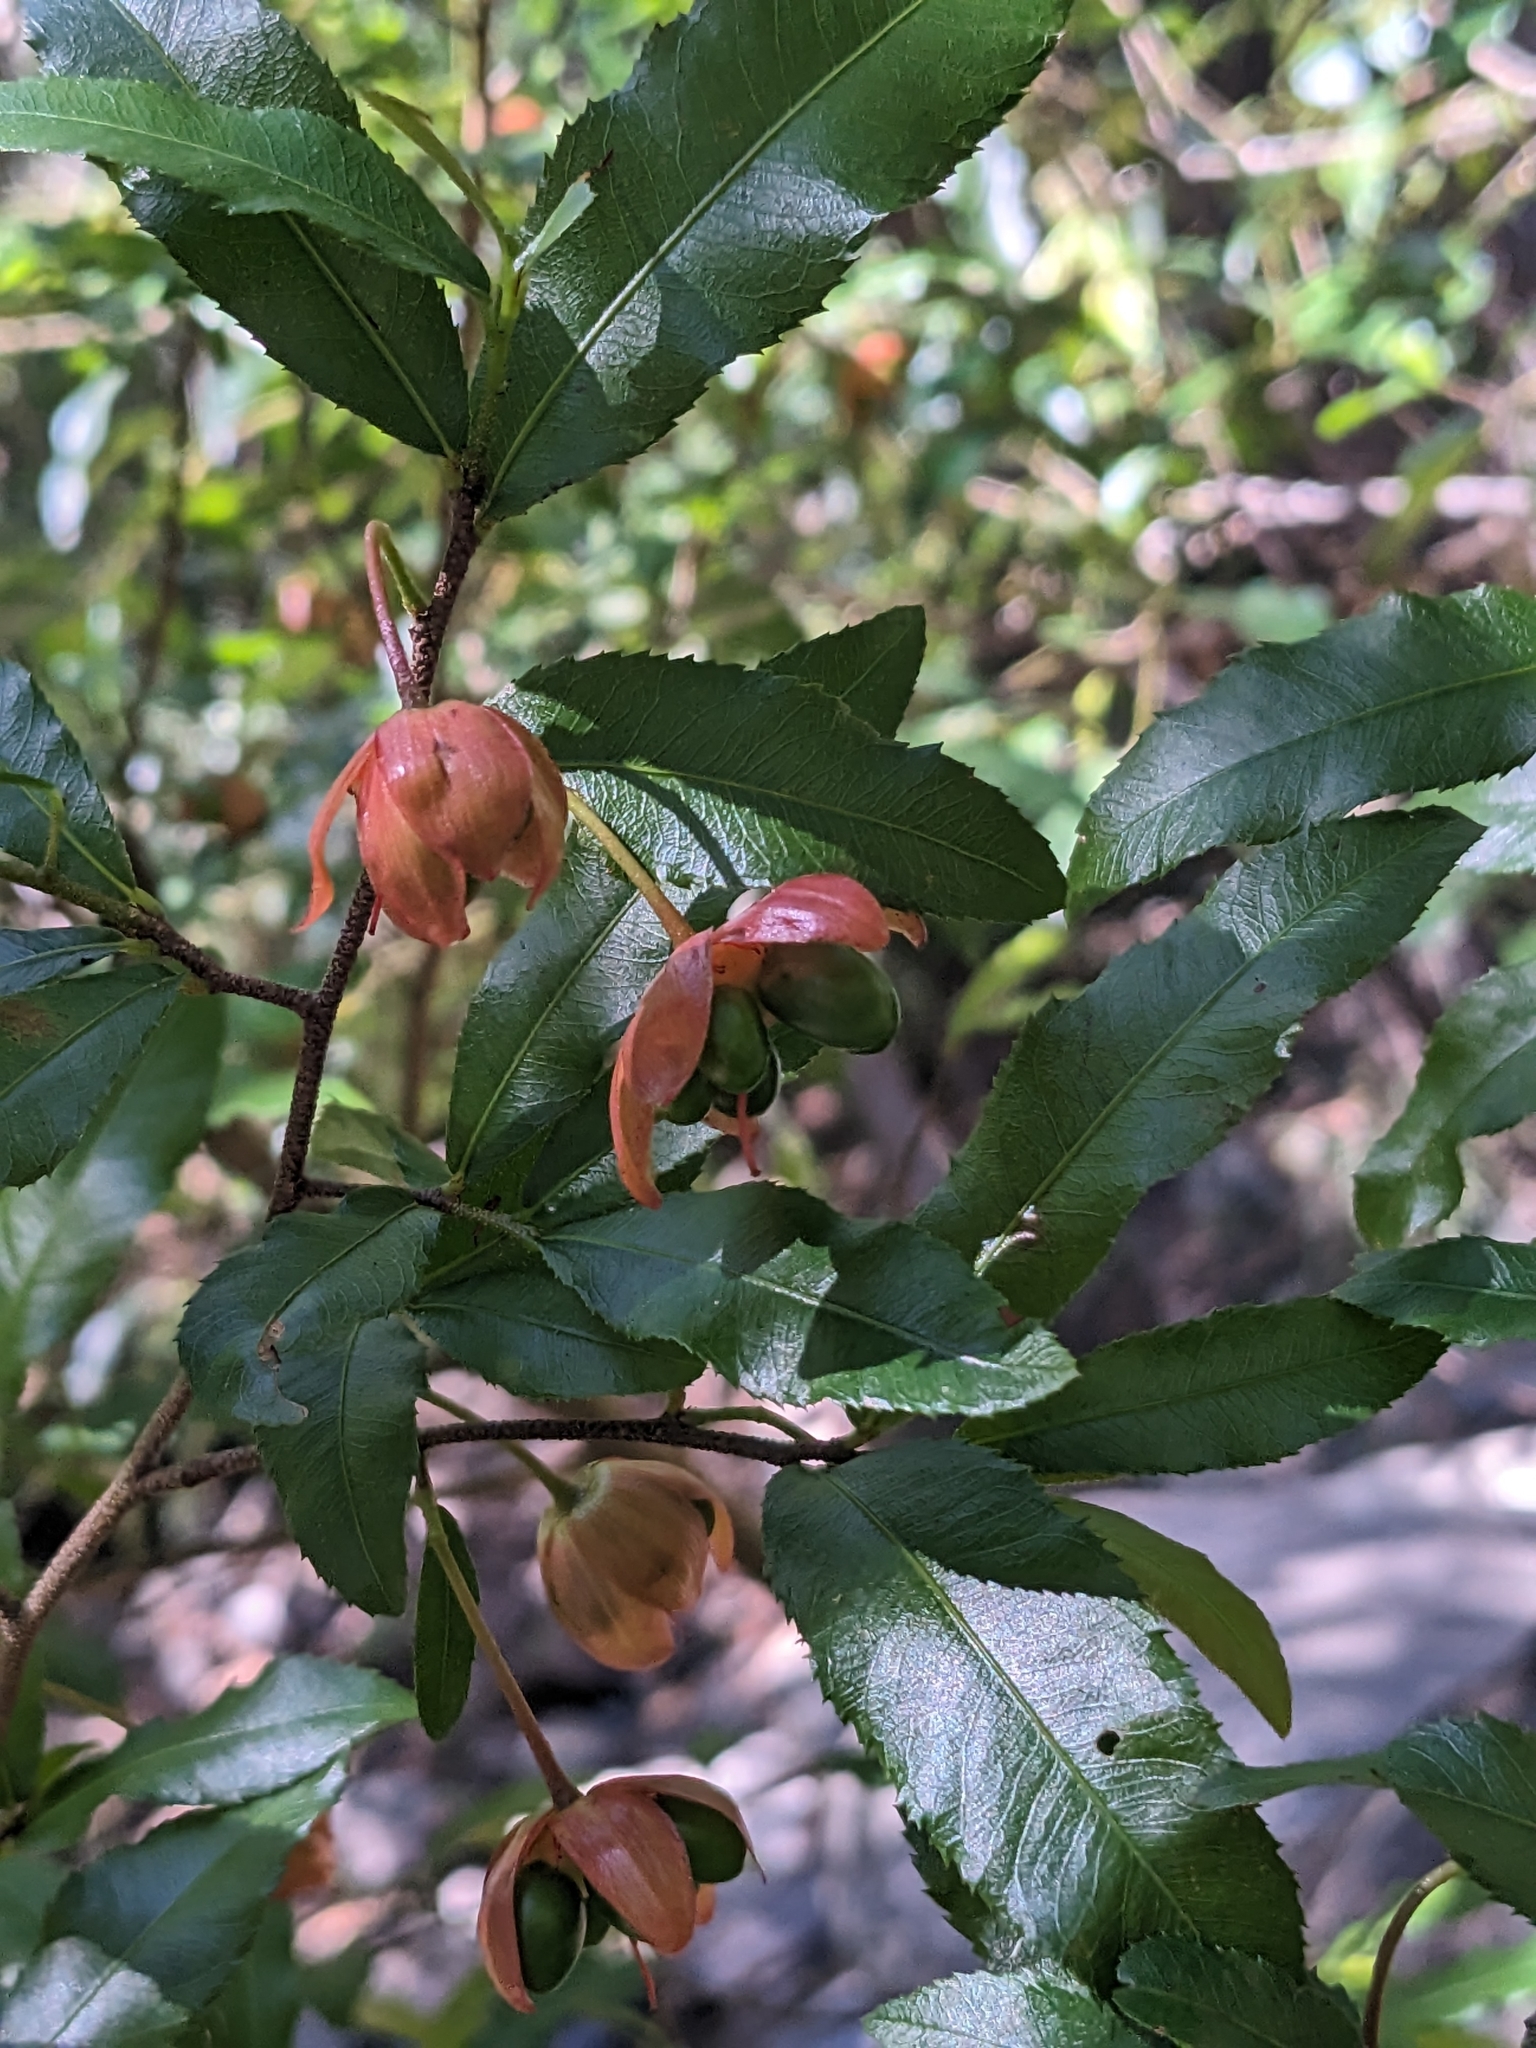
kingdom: Plantae
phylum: Tracheophyta
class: Magnoliopsida
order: Malpighiales
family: Ochnaceae
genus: Ochna
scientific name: Ochna serrulata
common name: Mickey mouse plant
